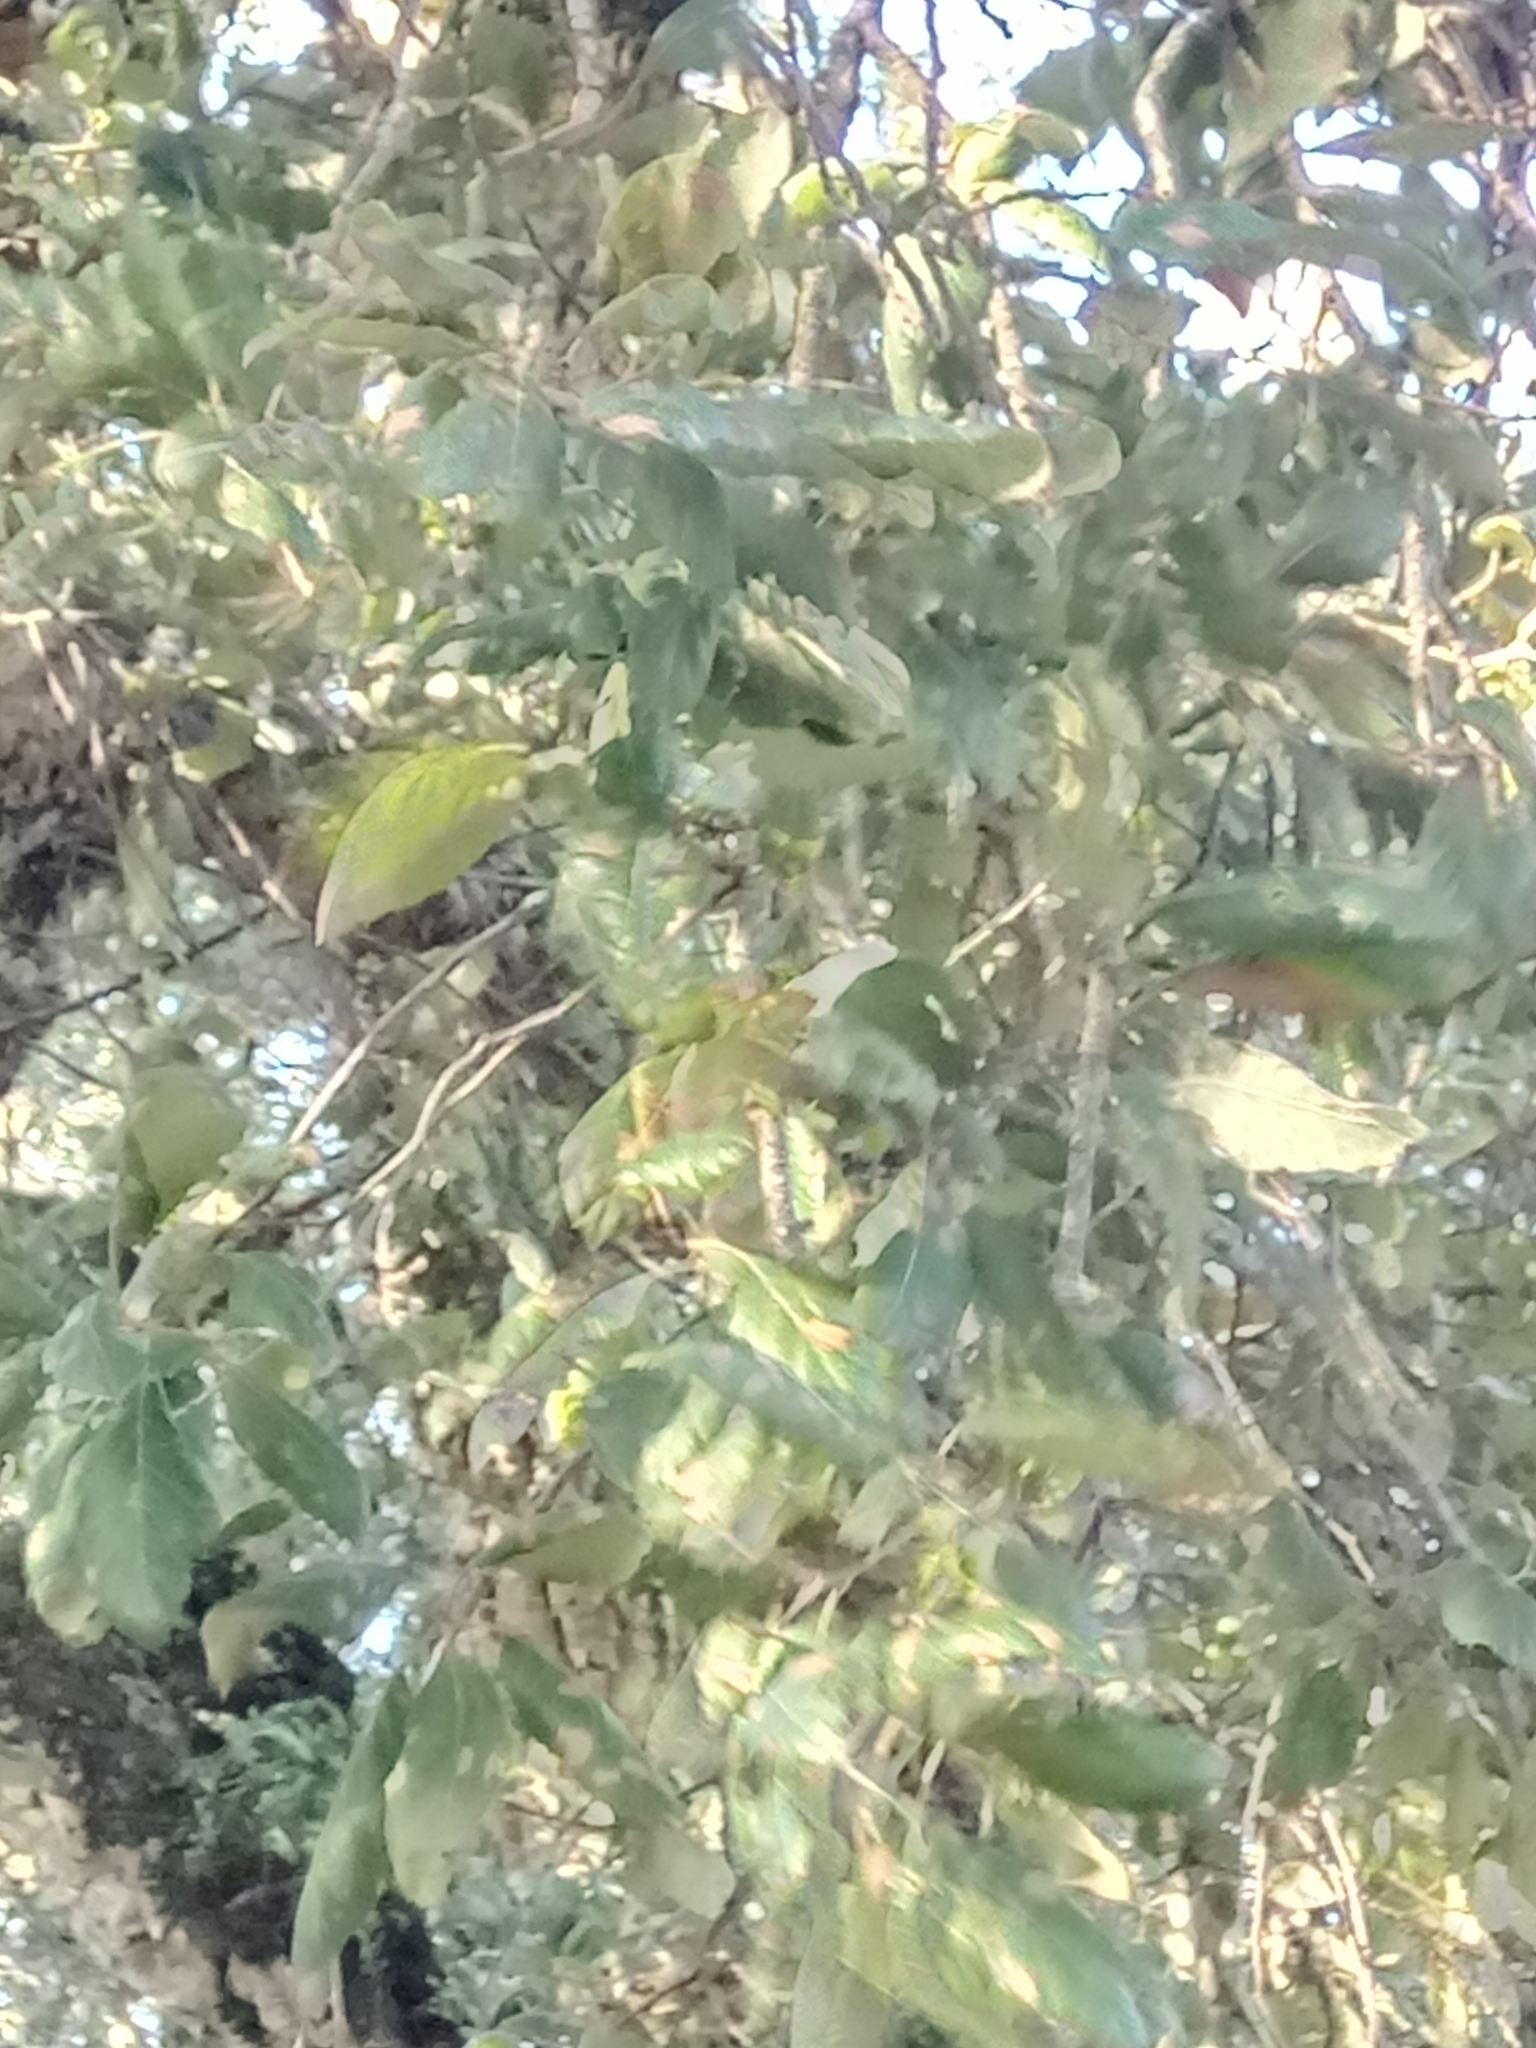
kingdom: Plantae
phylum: Tracheophyta
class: Magnoliopsida
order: Fagales
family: Fagaceae
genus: Quercus
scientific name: Quercus suber
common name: Cork oak
